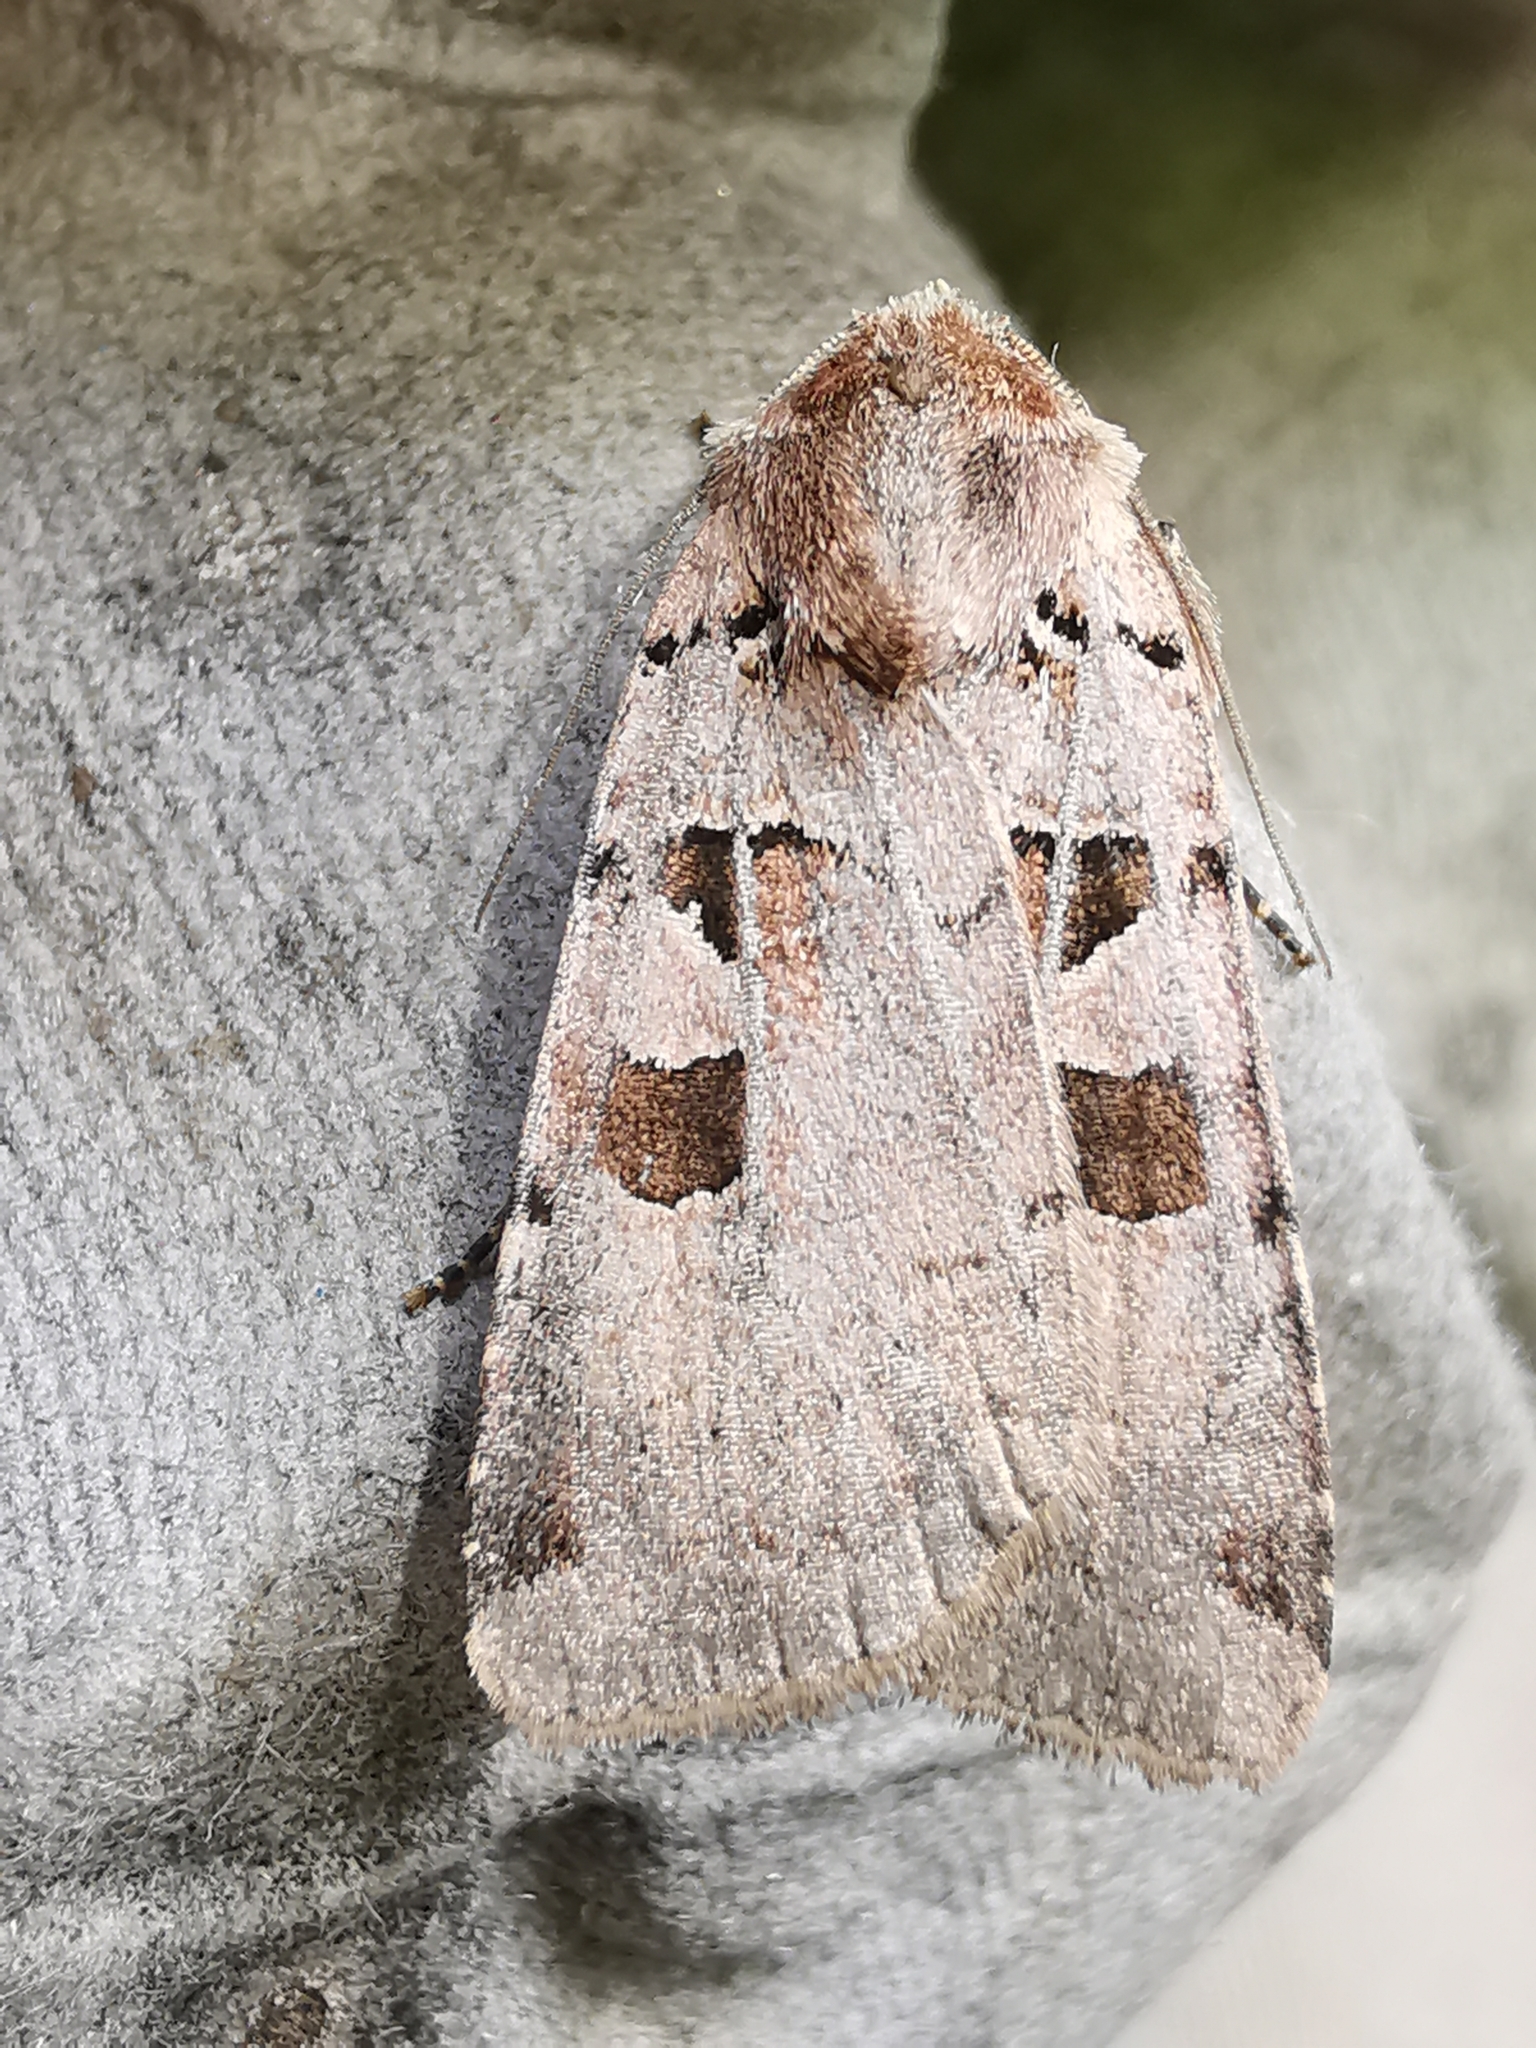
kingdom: Animalia
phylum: Arthropoda
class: Insecta
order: Lepidoptera
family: Noctuidae
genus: Xestia
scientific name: Xestia triangulum
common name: Double square-spot
